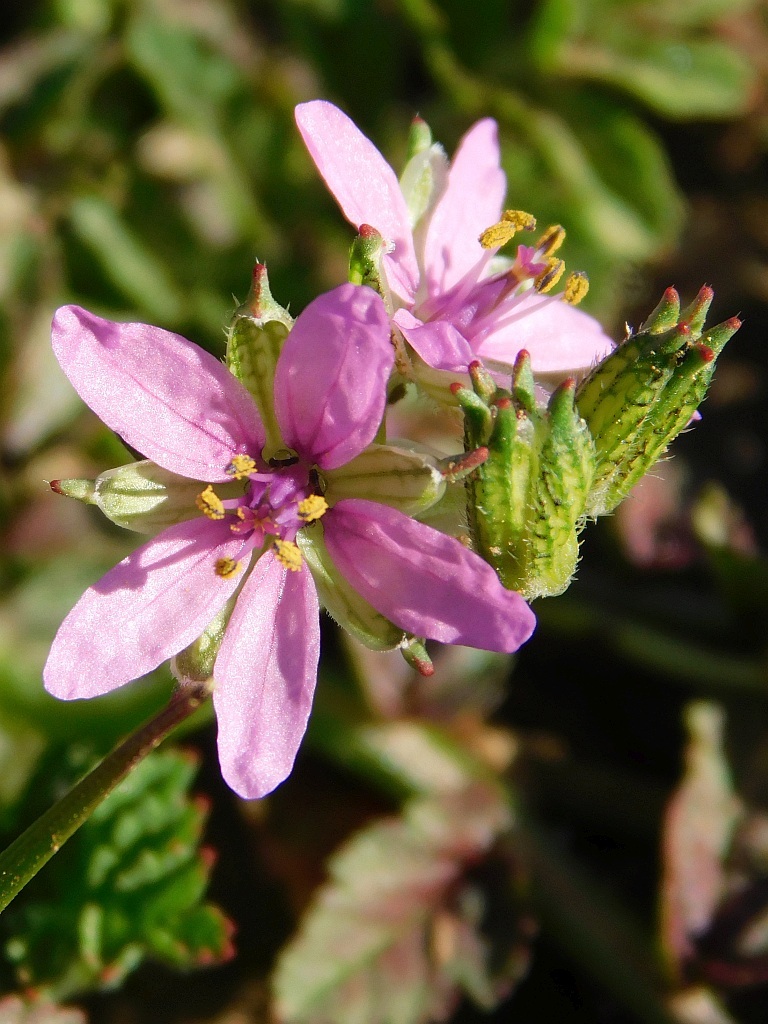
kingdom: Plantae
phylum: Tracheophyta
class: Magnoliopsida
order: Geraniales
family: Geraniaceae
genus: Erodium
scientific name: Erodium moschatum
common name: Musk stork's-bill
